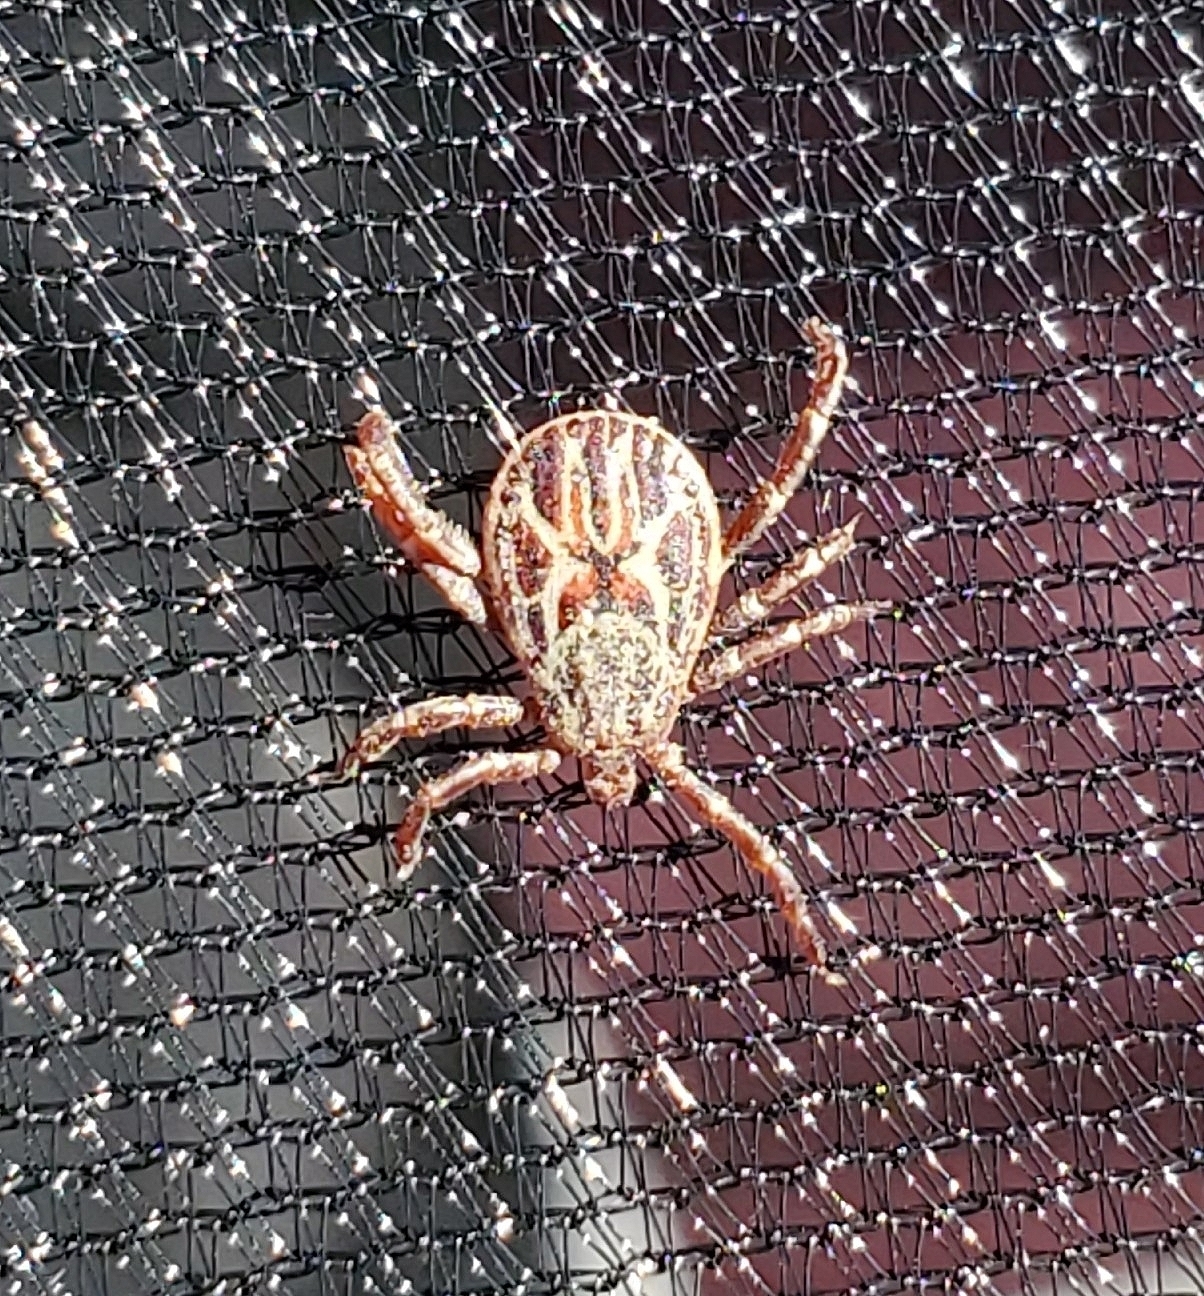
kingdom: Animalia
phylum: Arthropoda
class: Arachnida
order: Ixodida
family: Ixodidae
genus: Dermacentor
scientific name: Dermacentor hunteri
